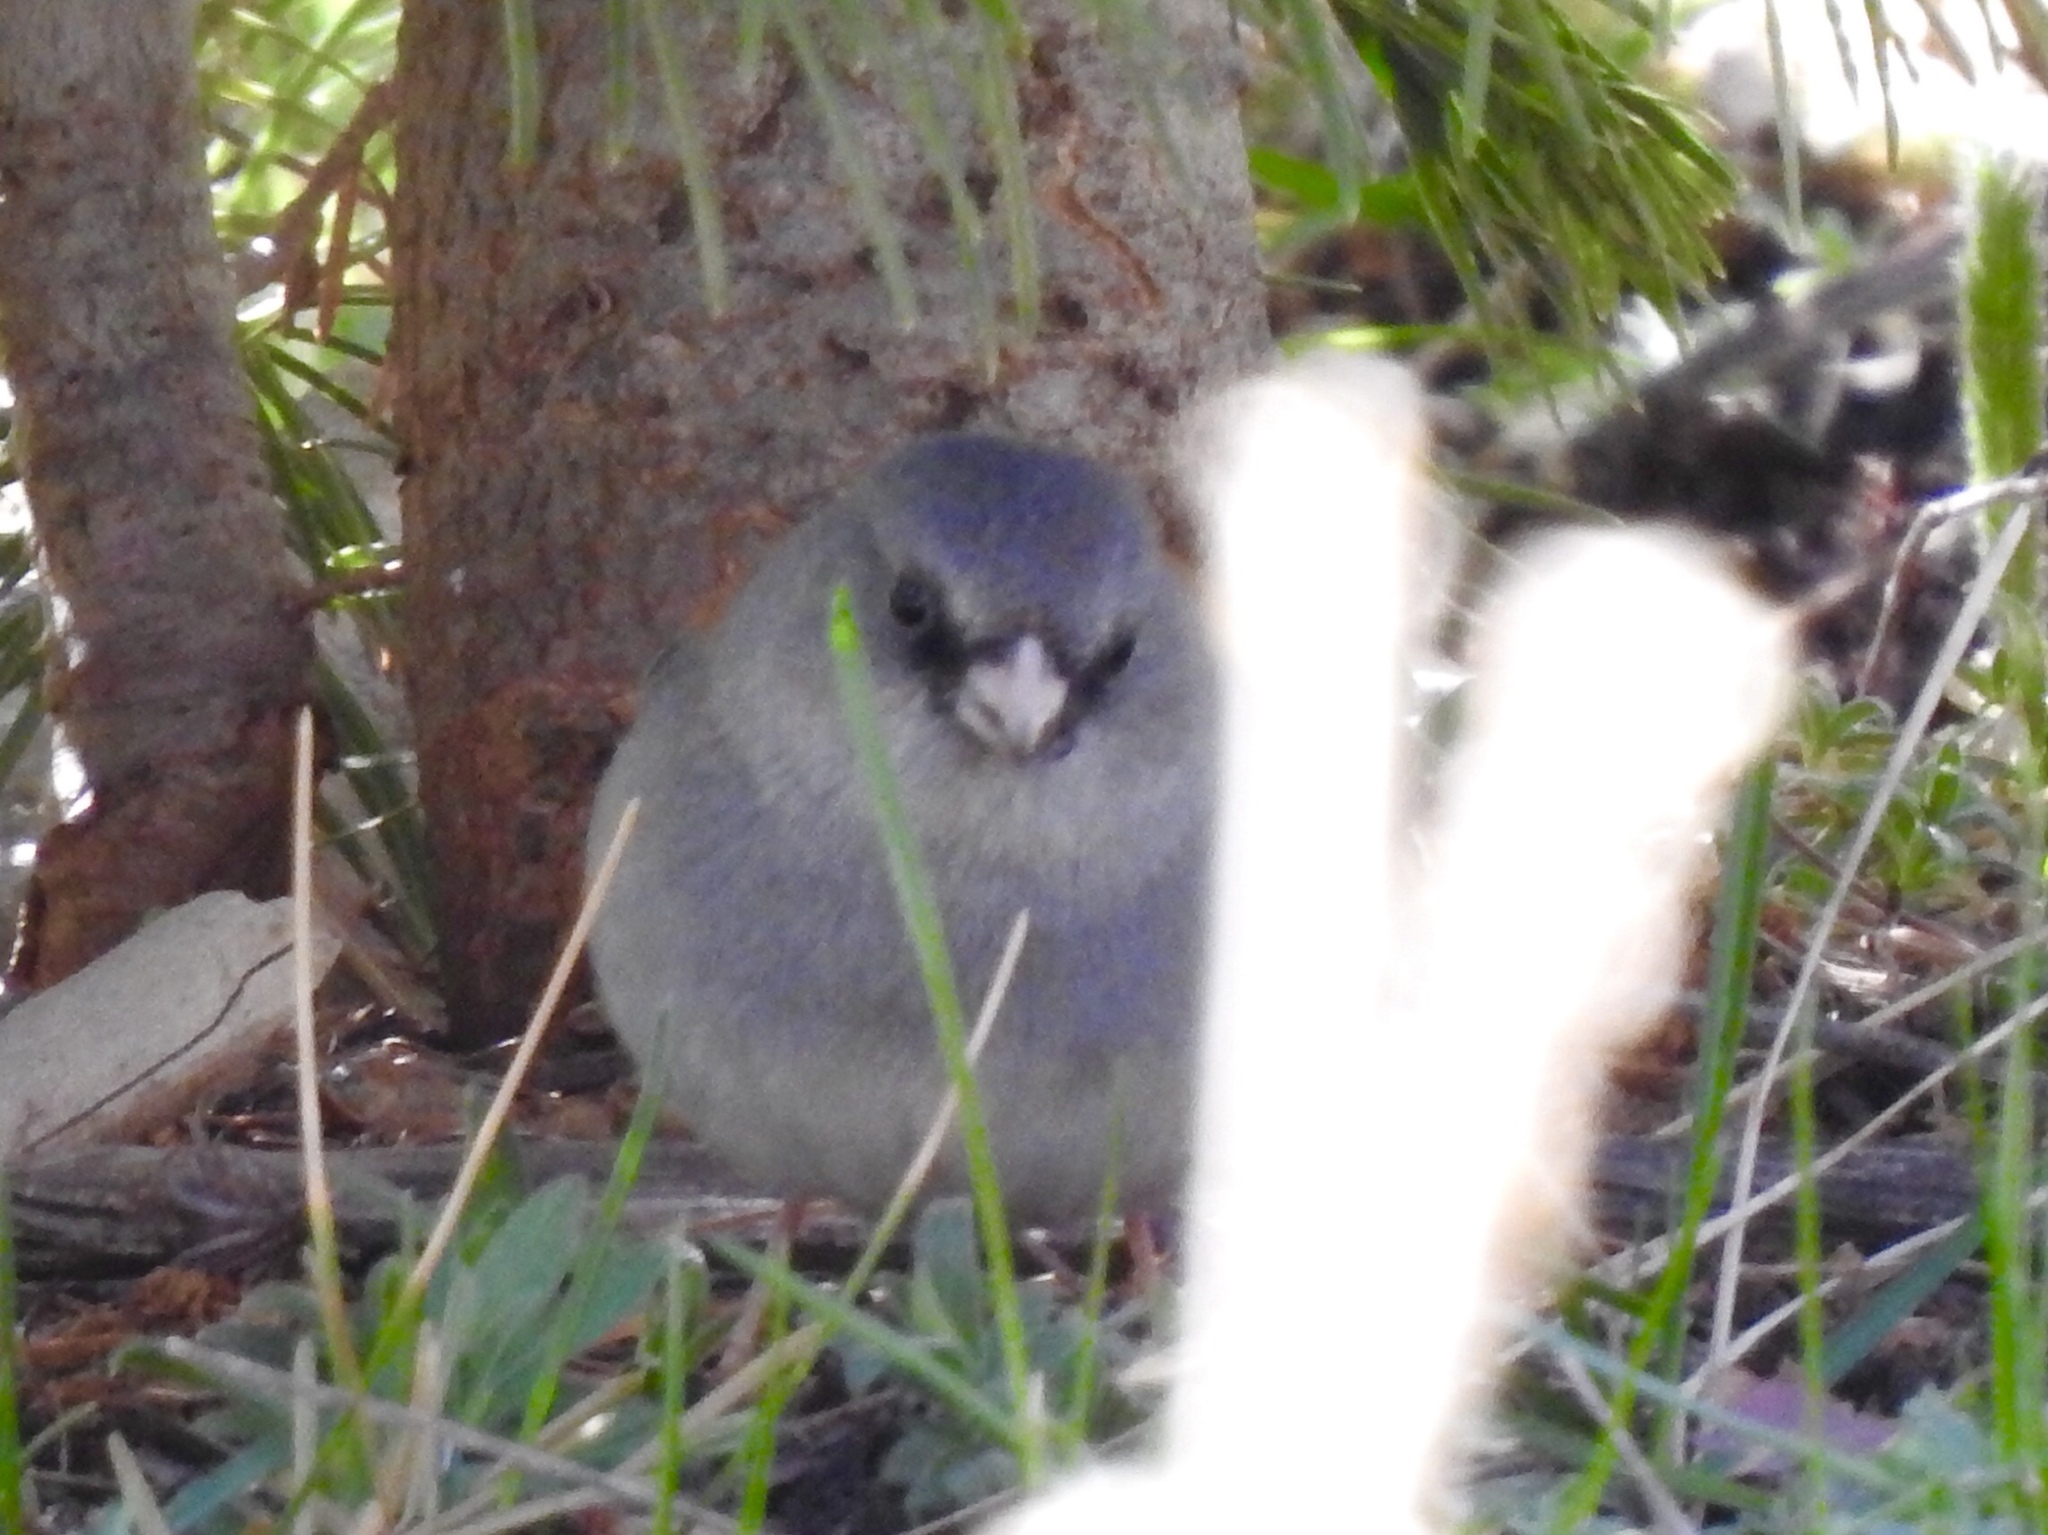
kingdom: Animalia
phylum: Chordata
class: Aves
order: Passeriformes
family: Passerellidae
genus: Junco
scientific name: Junco hyemalis
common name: Dark-eyed junco
